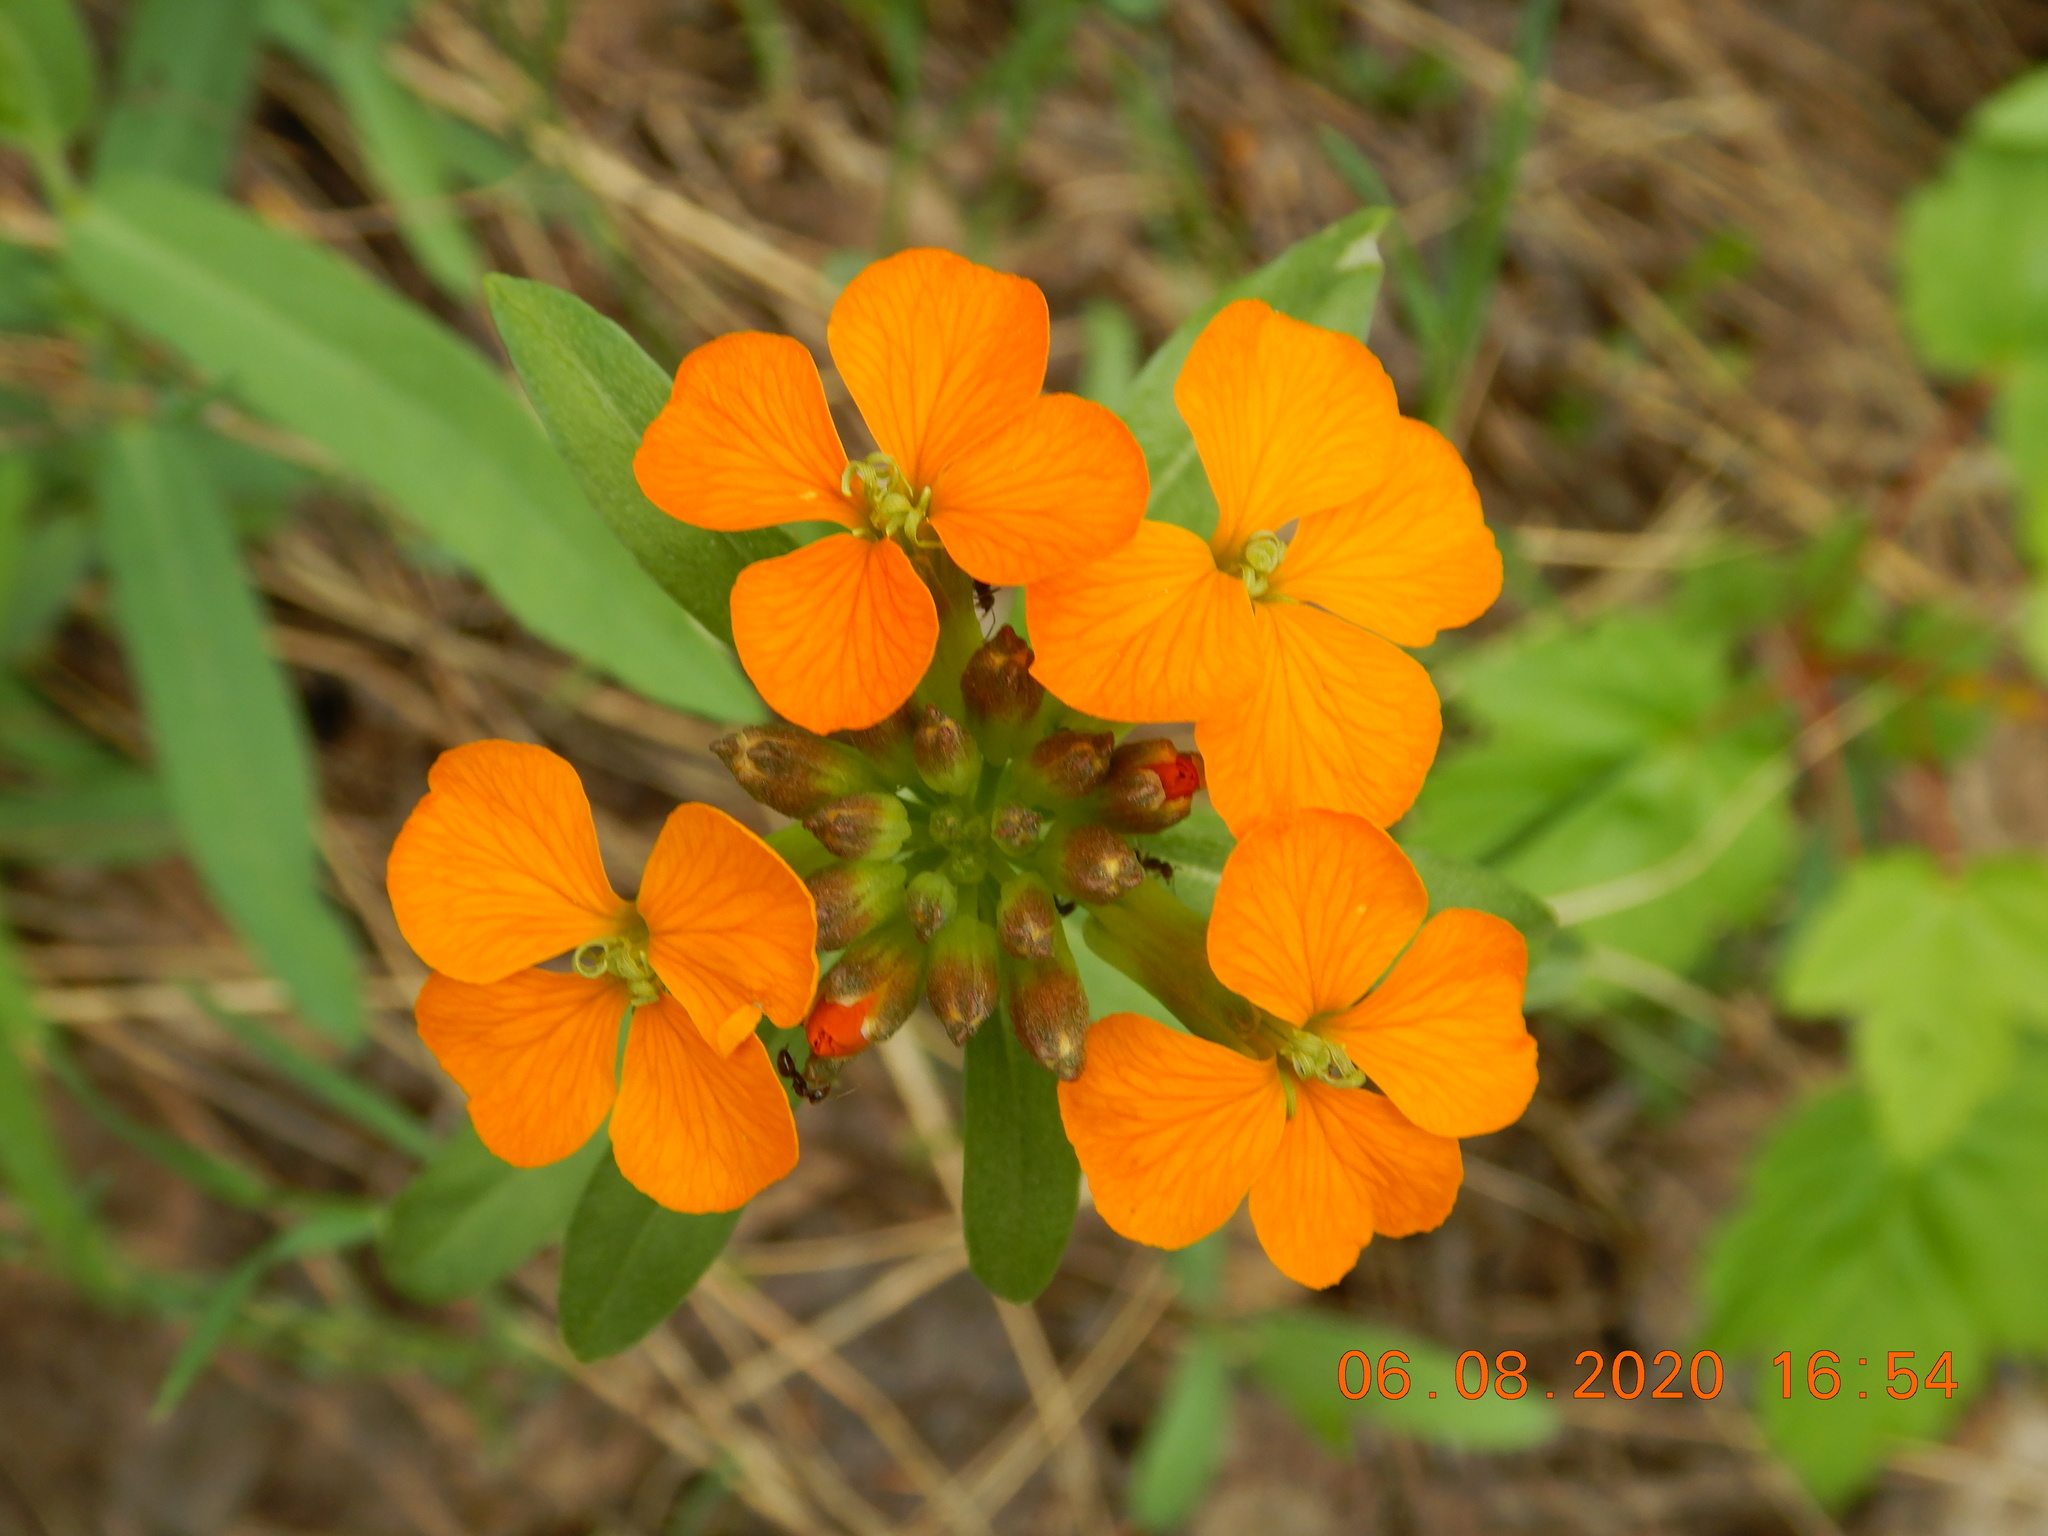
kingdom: Plantae
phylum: Tracheophyta
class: Magnoliopsida
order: Brassicales
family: Brassicaceae
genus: Erysimum
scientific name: Erysimum capitatum
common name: Western wallflower
